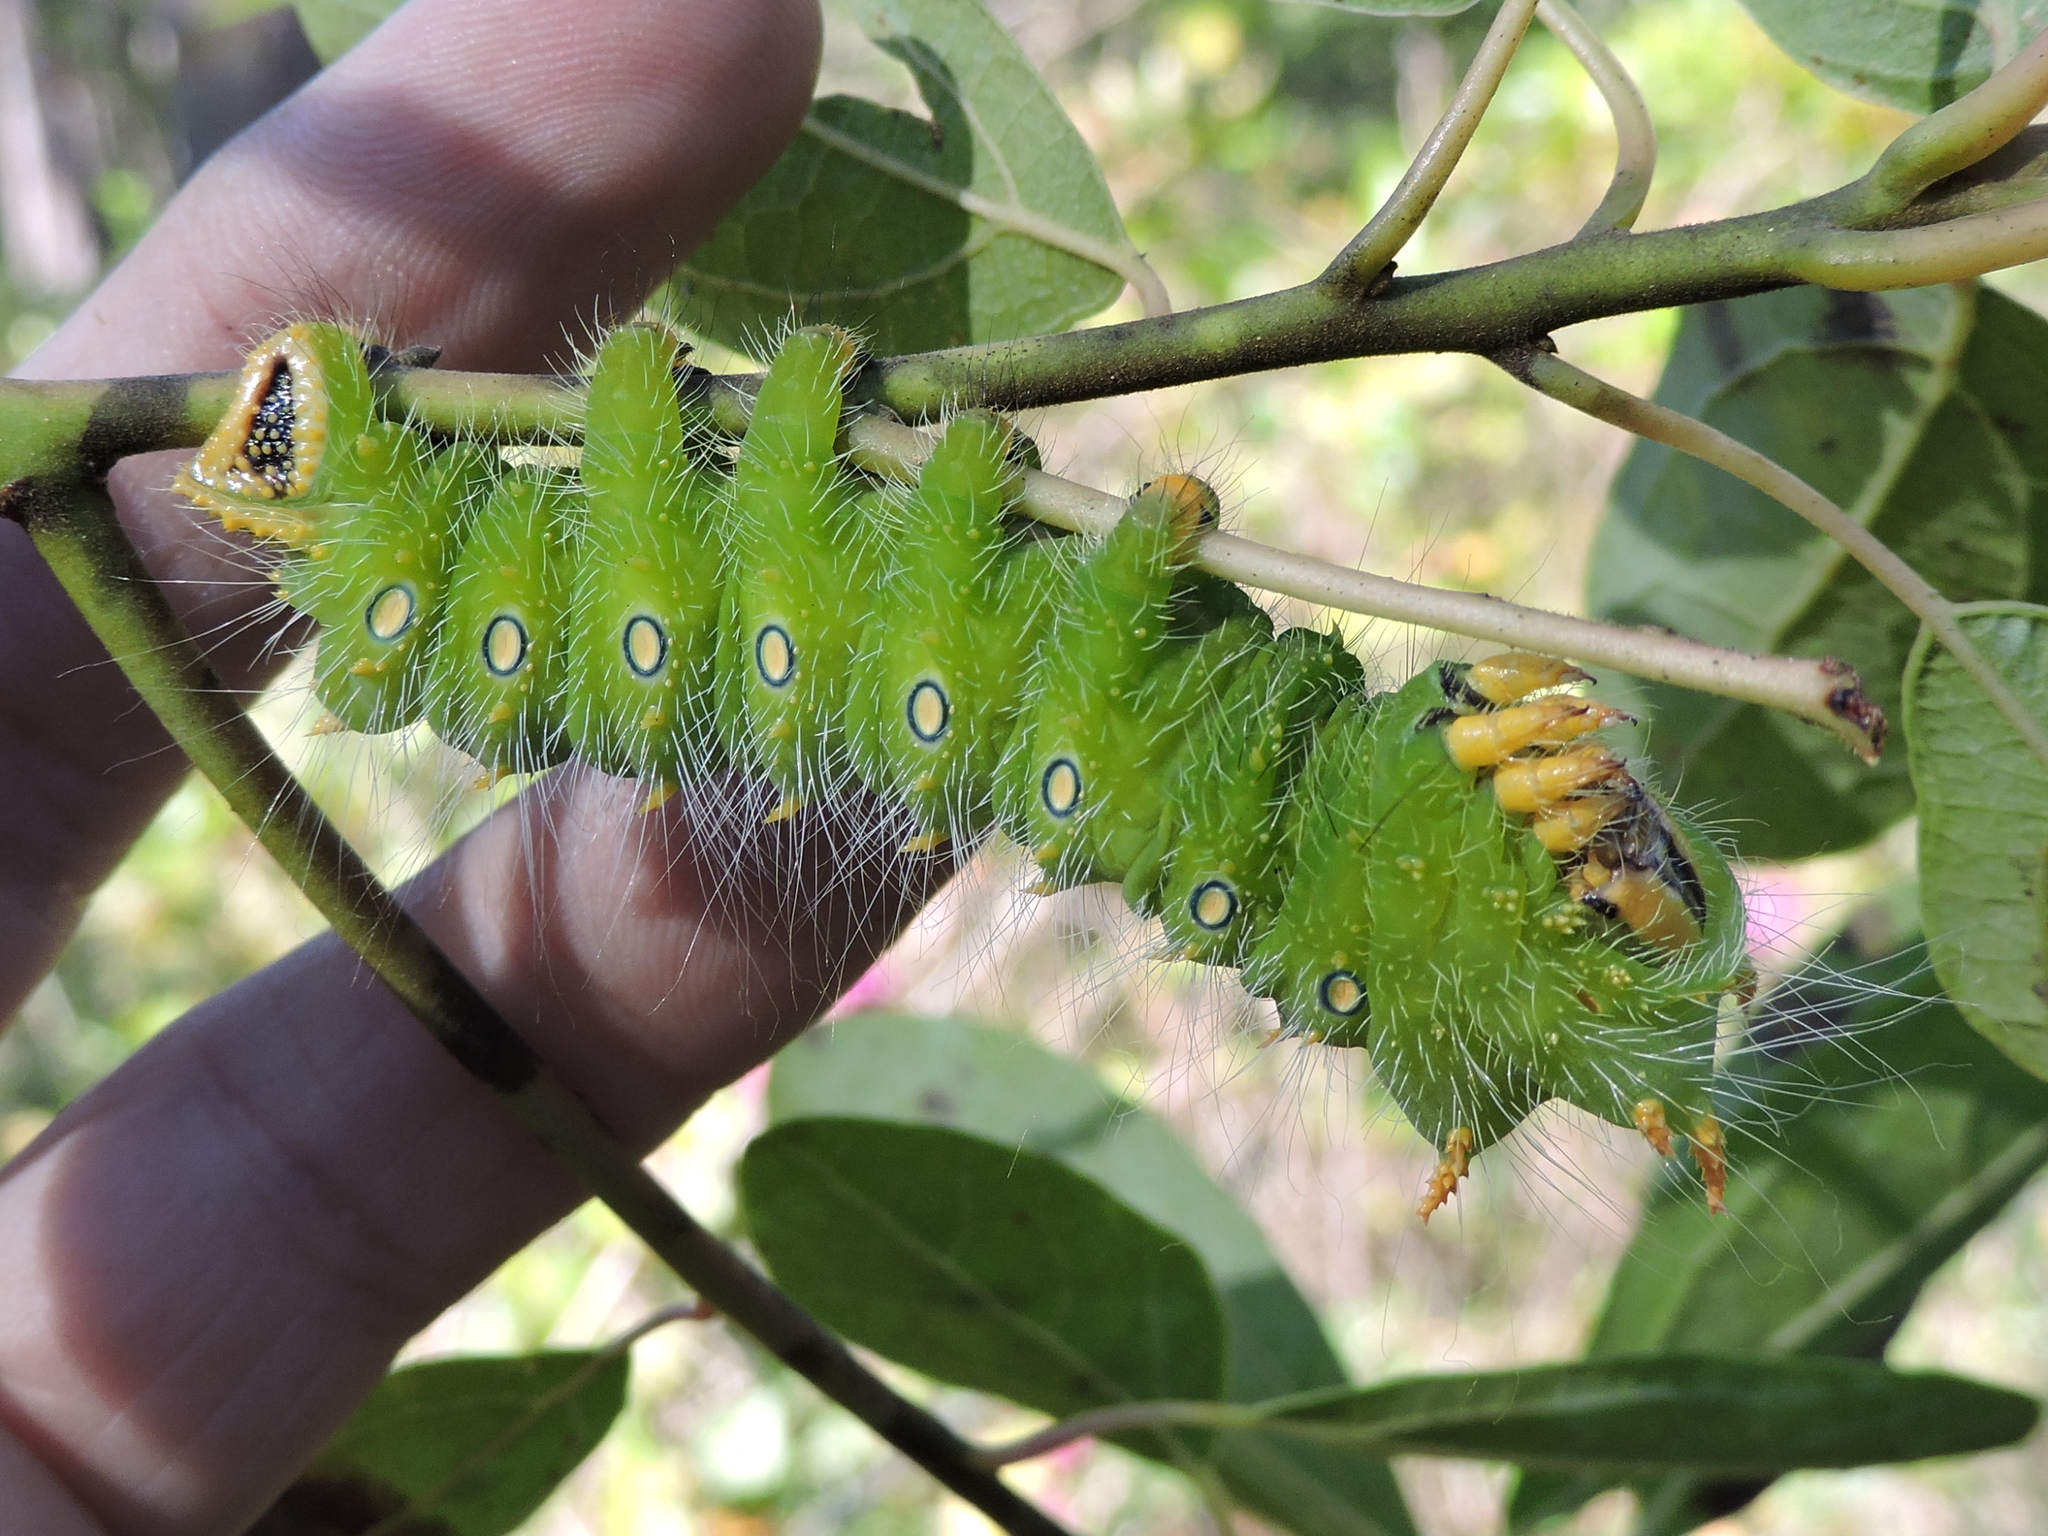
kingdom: Animalia
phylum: Arthropoda
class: Insecta
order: Lepidoptera
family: Saturniidae
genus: Eacles
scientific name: Eacles imperialis
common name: Imperial moth
